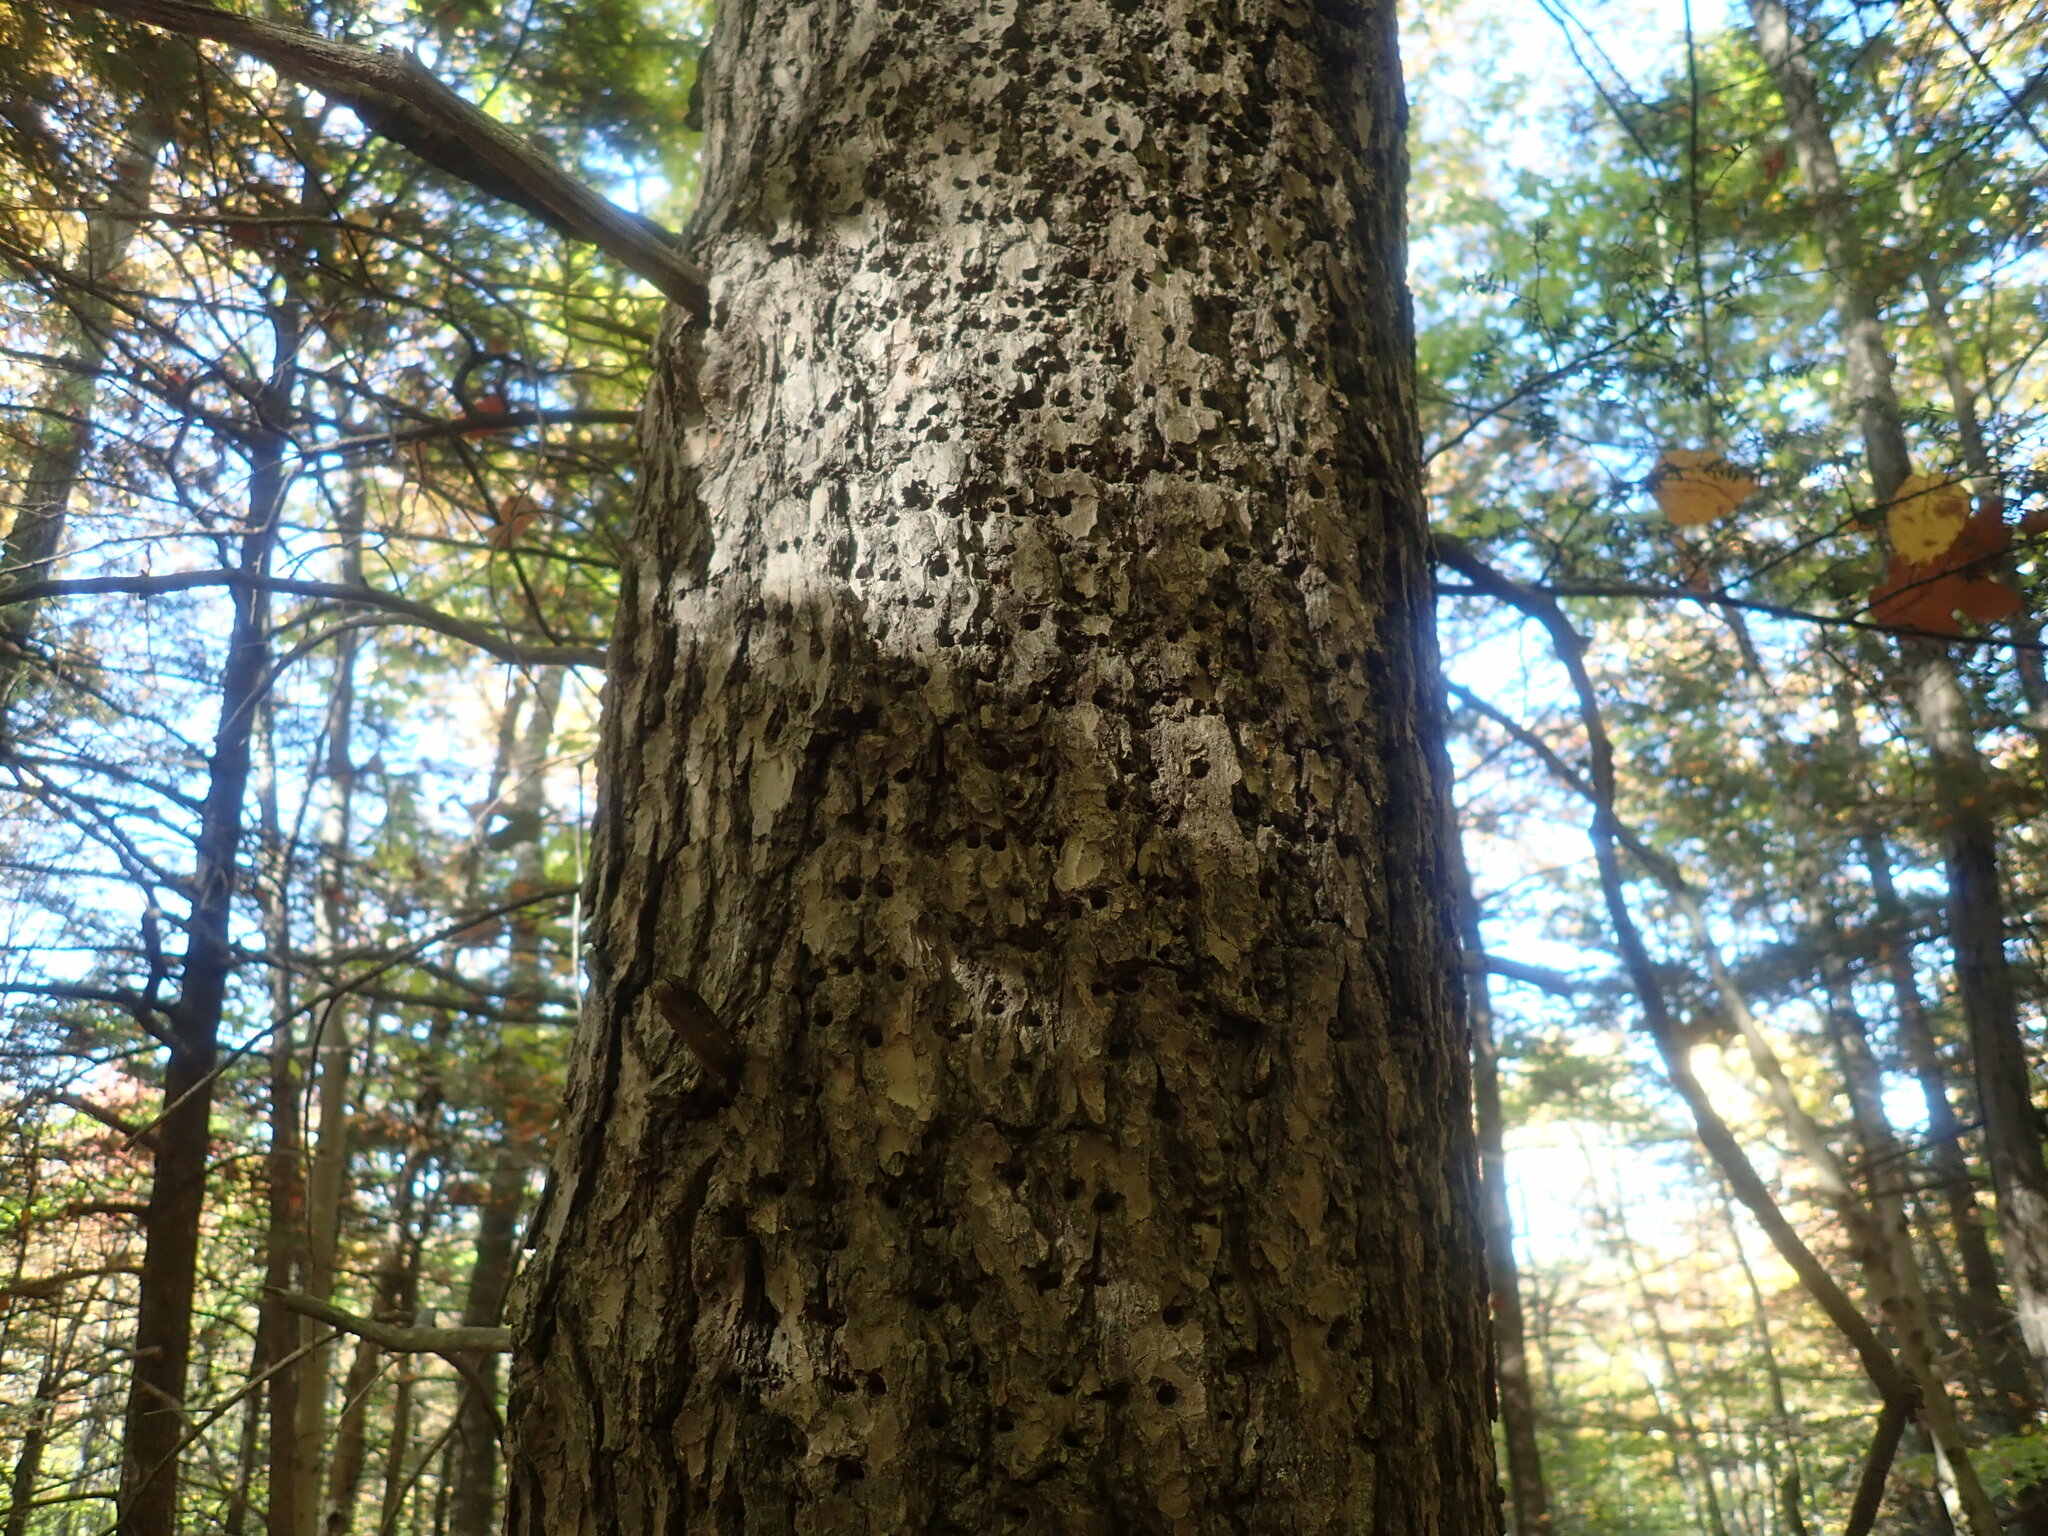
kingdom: Animalia
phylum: Chordata
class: Aves
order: Piciformes
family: Picidae
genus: Sphyrapicus
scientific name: Sphyrapicus varius
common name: Yellow-bellied sapsucker
